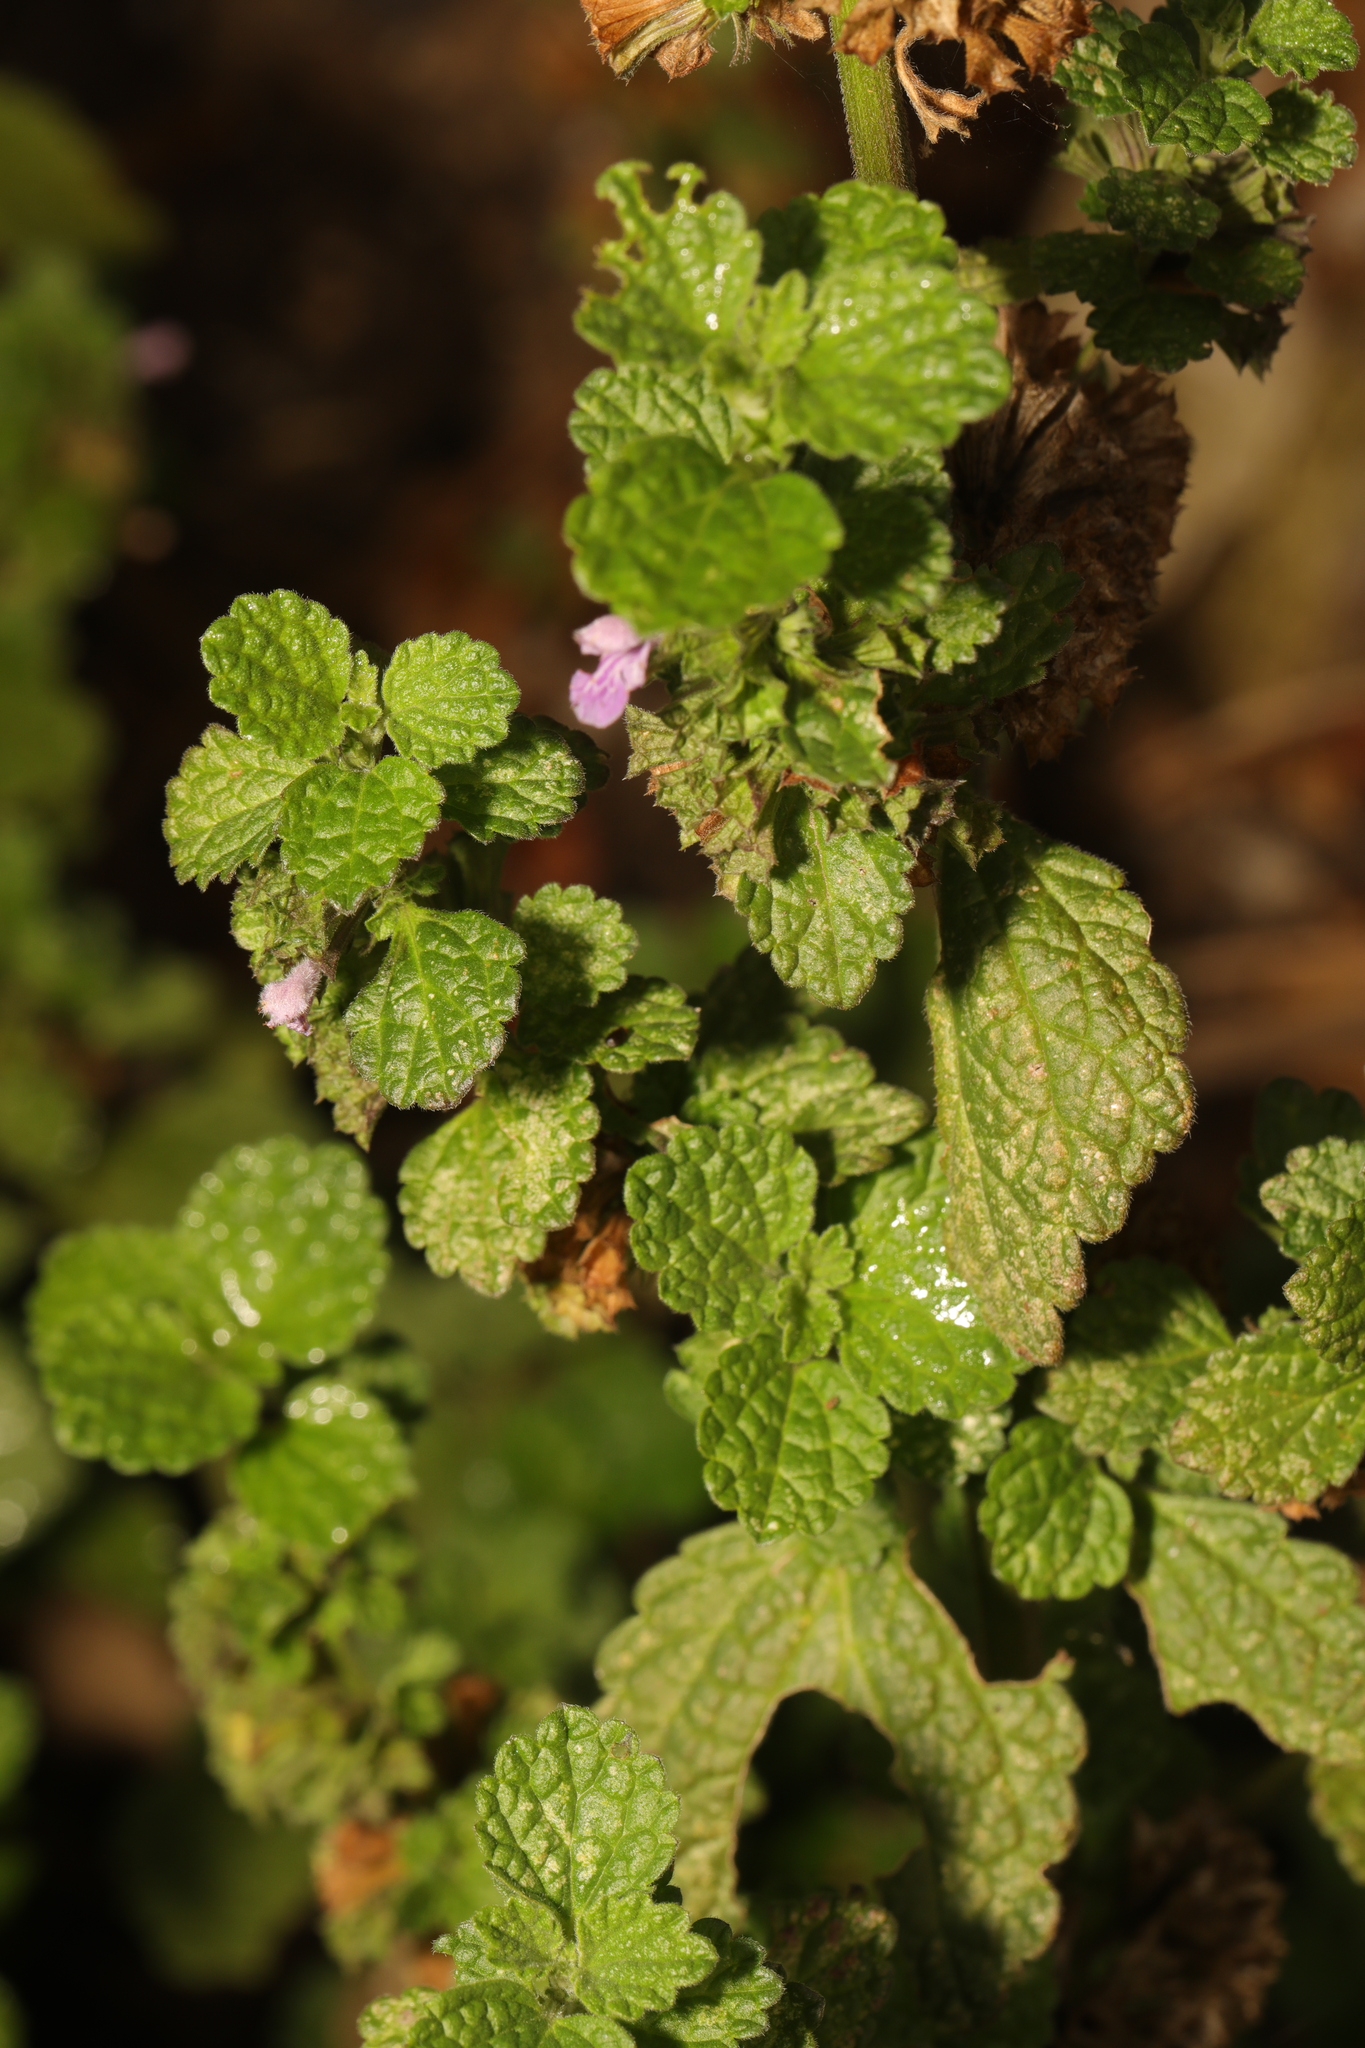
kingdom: Plantae
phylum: Tracheophyta
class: Magnoliopsida
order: Lamiales
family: Lamiaceae
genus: Ballota
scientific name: Ballota nigra
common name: Black horehound
